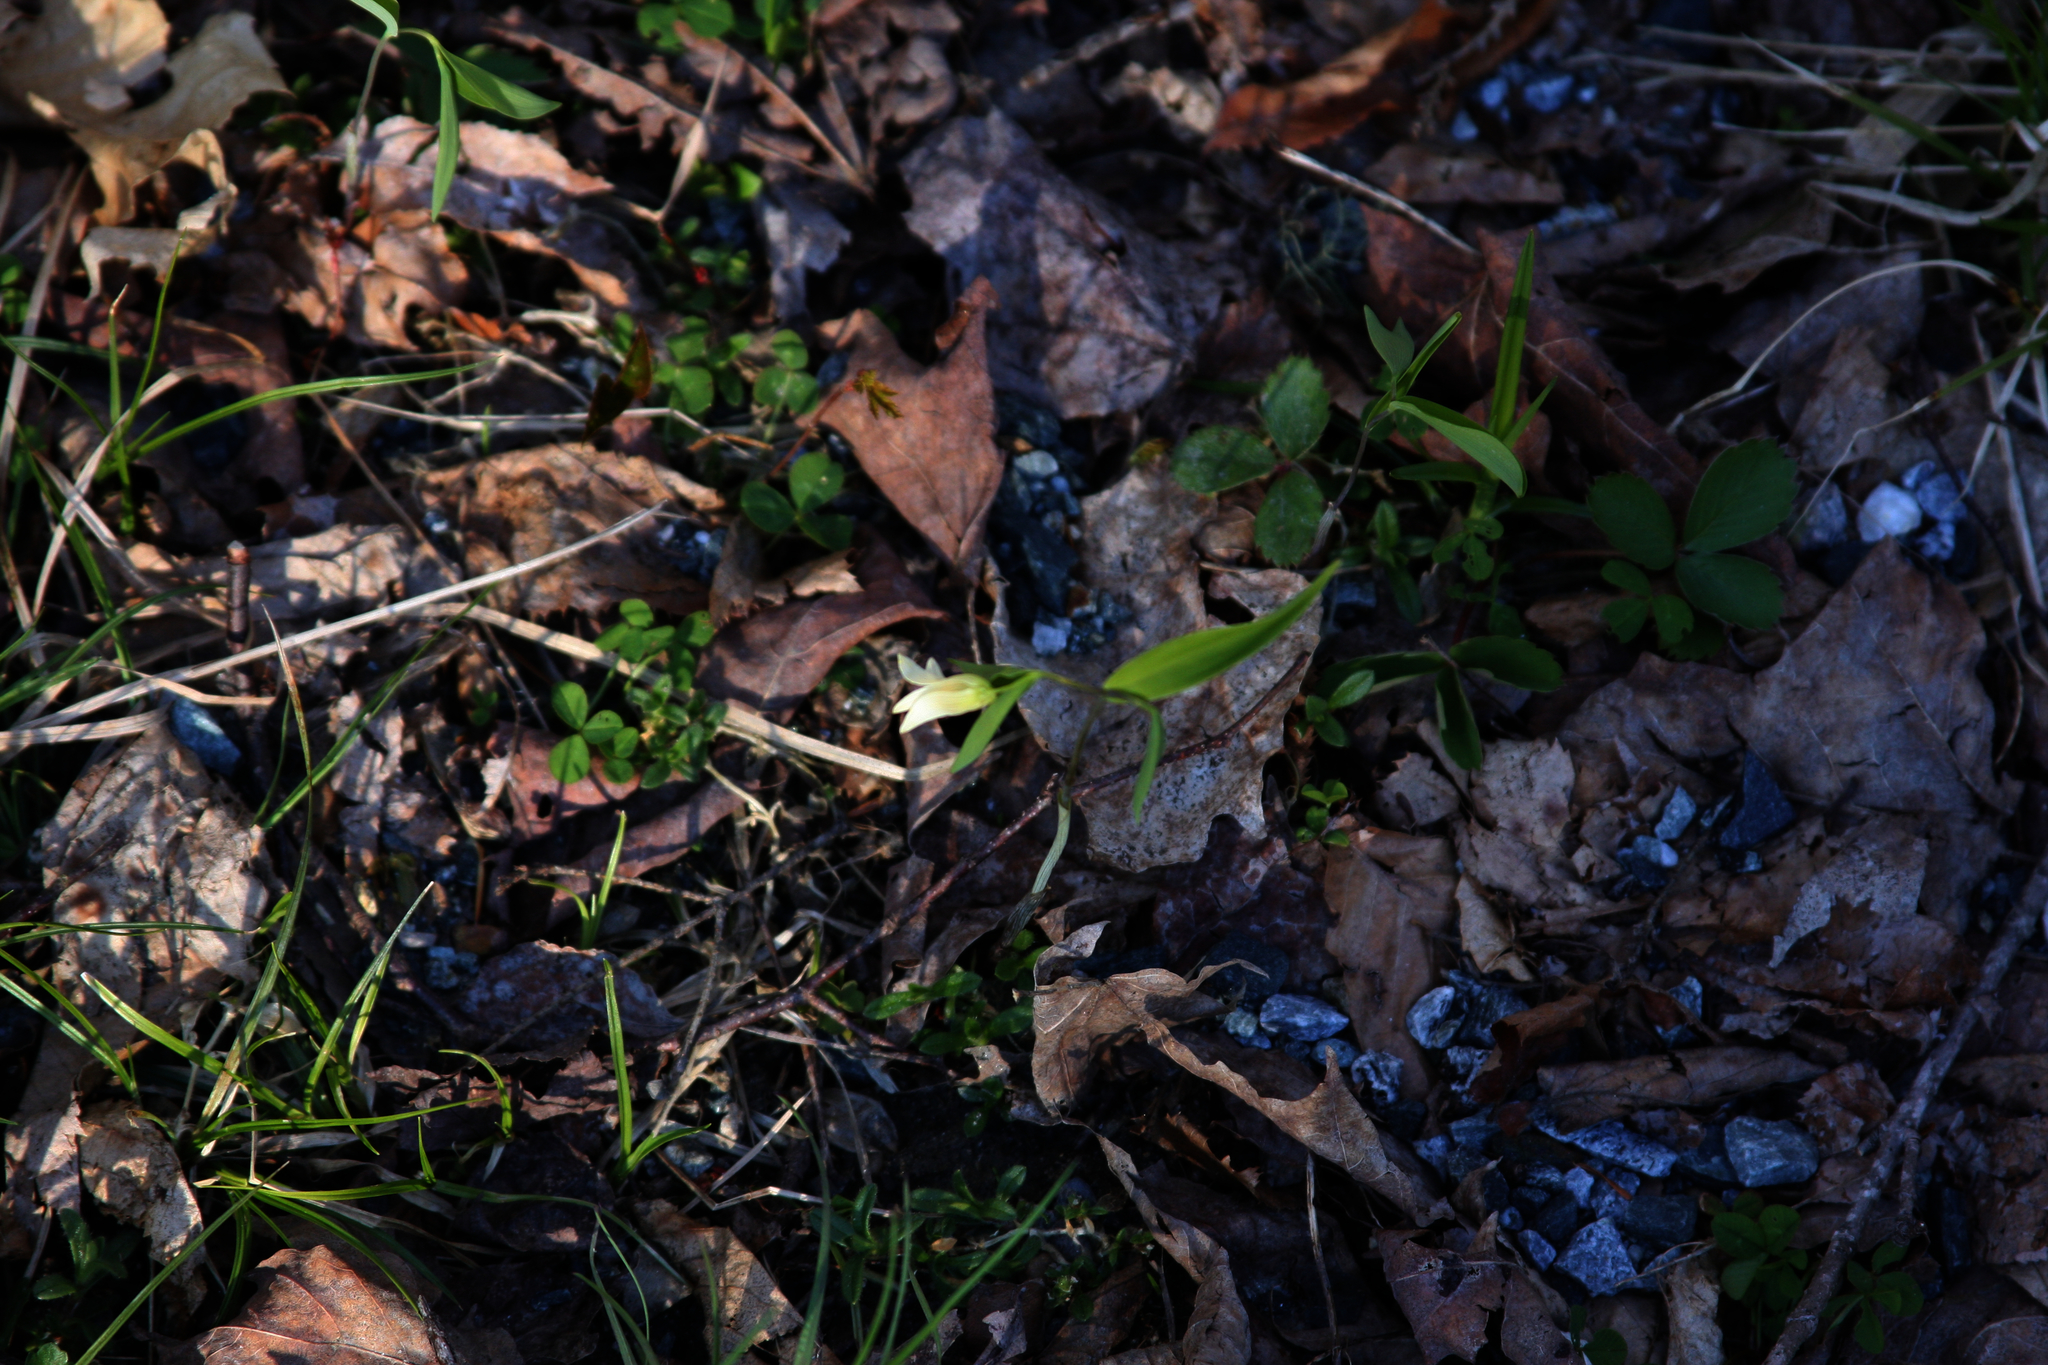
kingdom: Plantae
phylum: Tracheophyta
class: Liliopsida
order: Liliales
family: Colchicaceae
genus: Uvularia
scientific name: Uvularia sessilifolia
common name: Straw-lily
